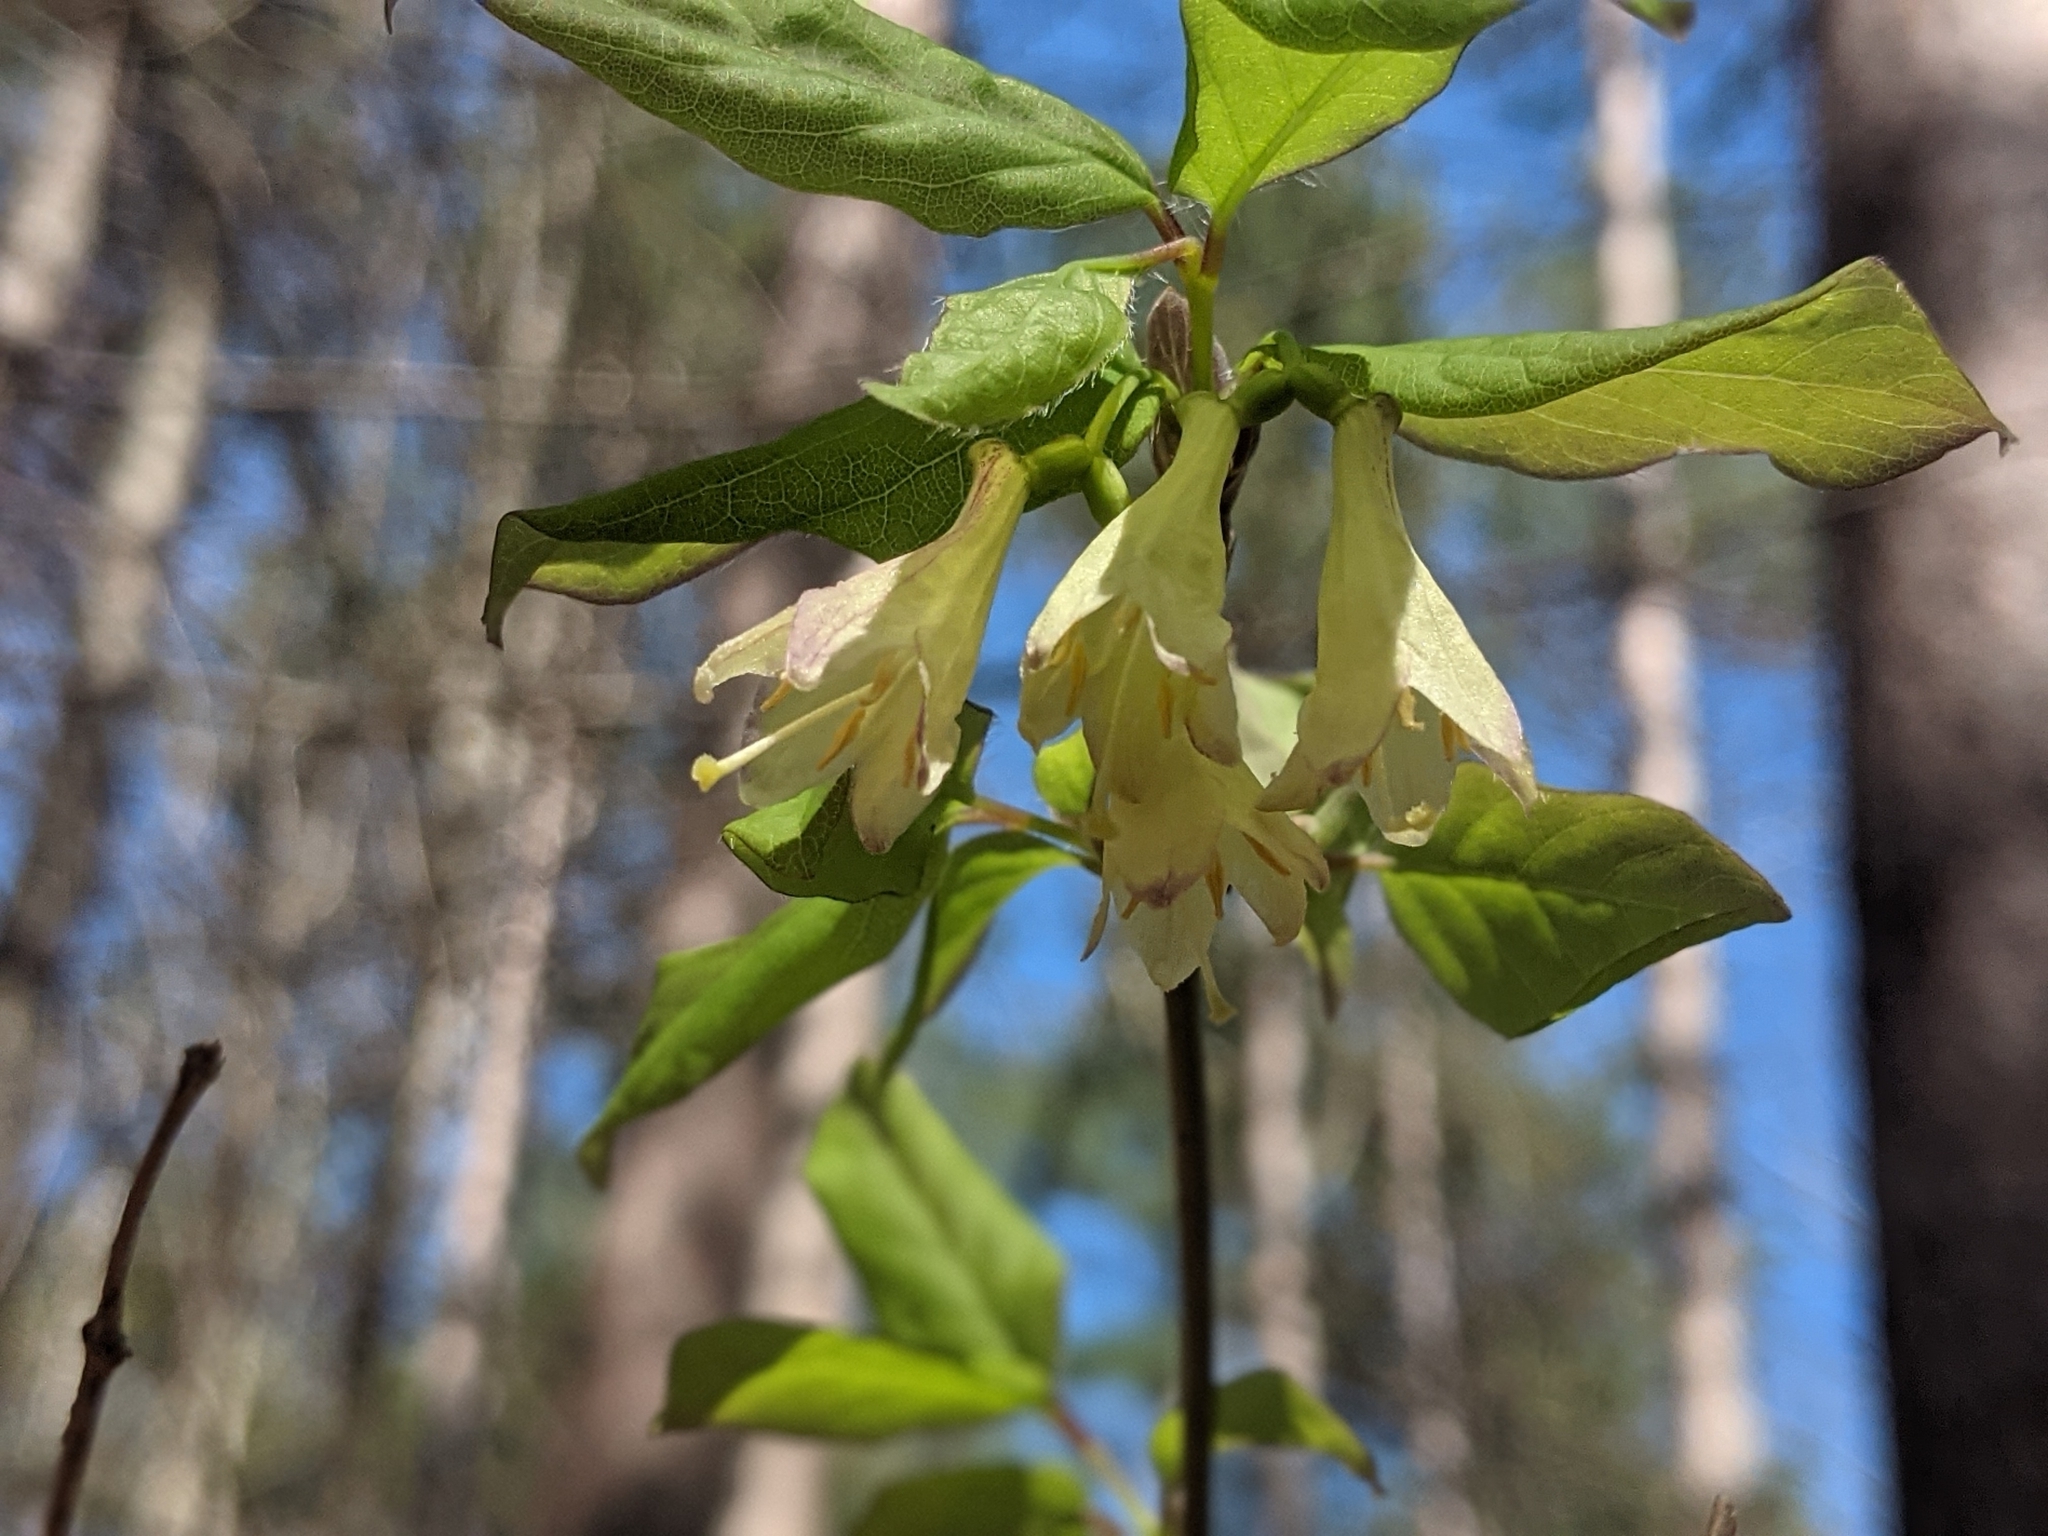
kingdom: Plantae
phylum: Tracheophyta
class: Magnoliopsida
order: Dipsacales
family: Caprifoliaceae
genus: Lonicera
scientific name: Lonicera canadensis
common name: American fly-honeysuckle
